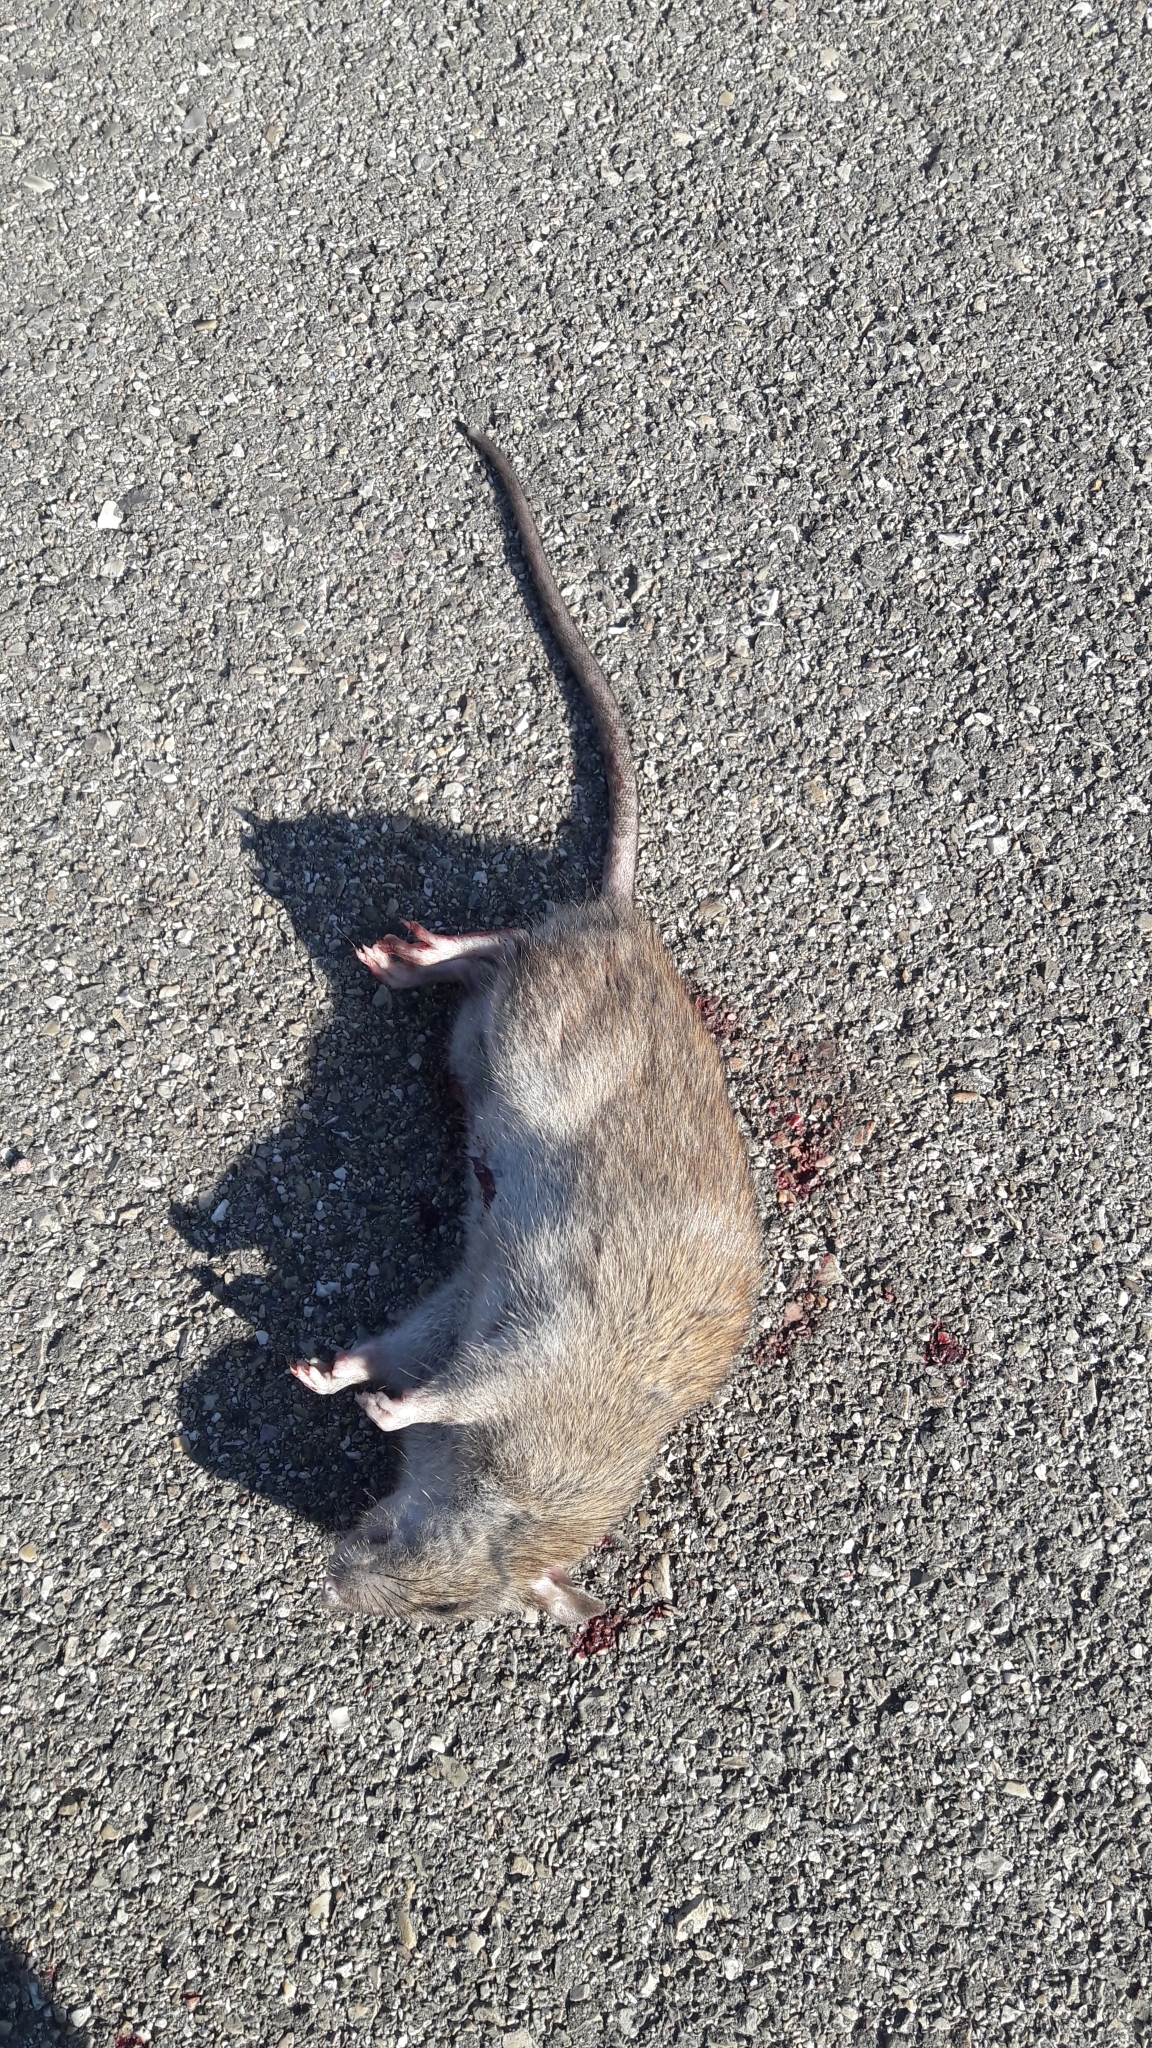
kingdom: Animalia
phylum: Chordata
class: Mammalia
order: Rodentia
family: Muridae
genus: Rattus
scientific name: Rattus norvegicus
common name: Brown rat
